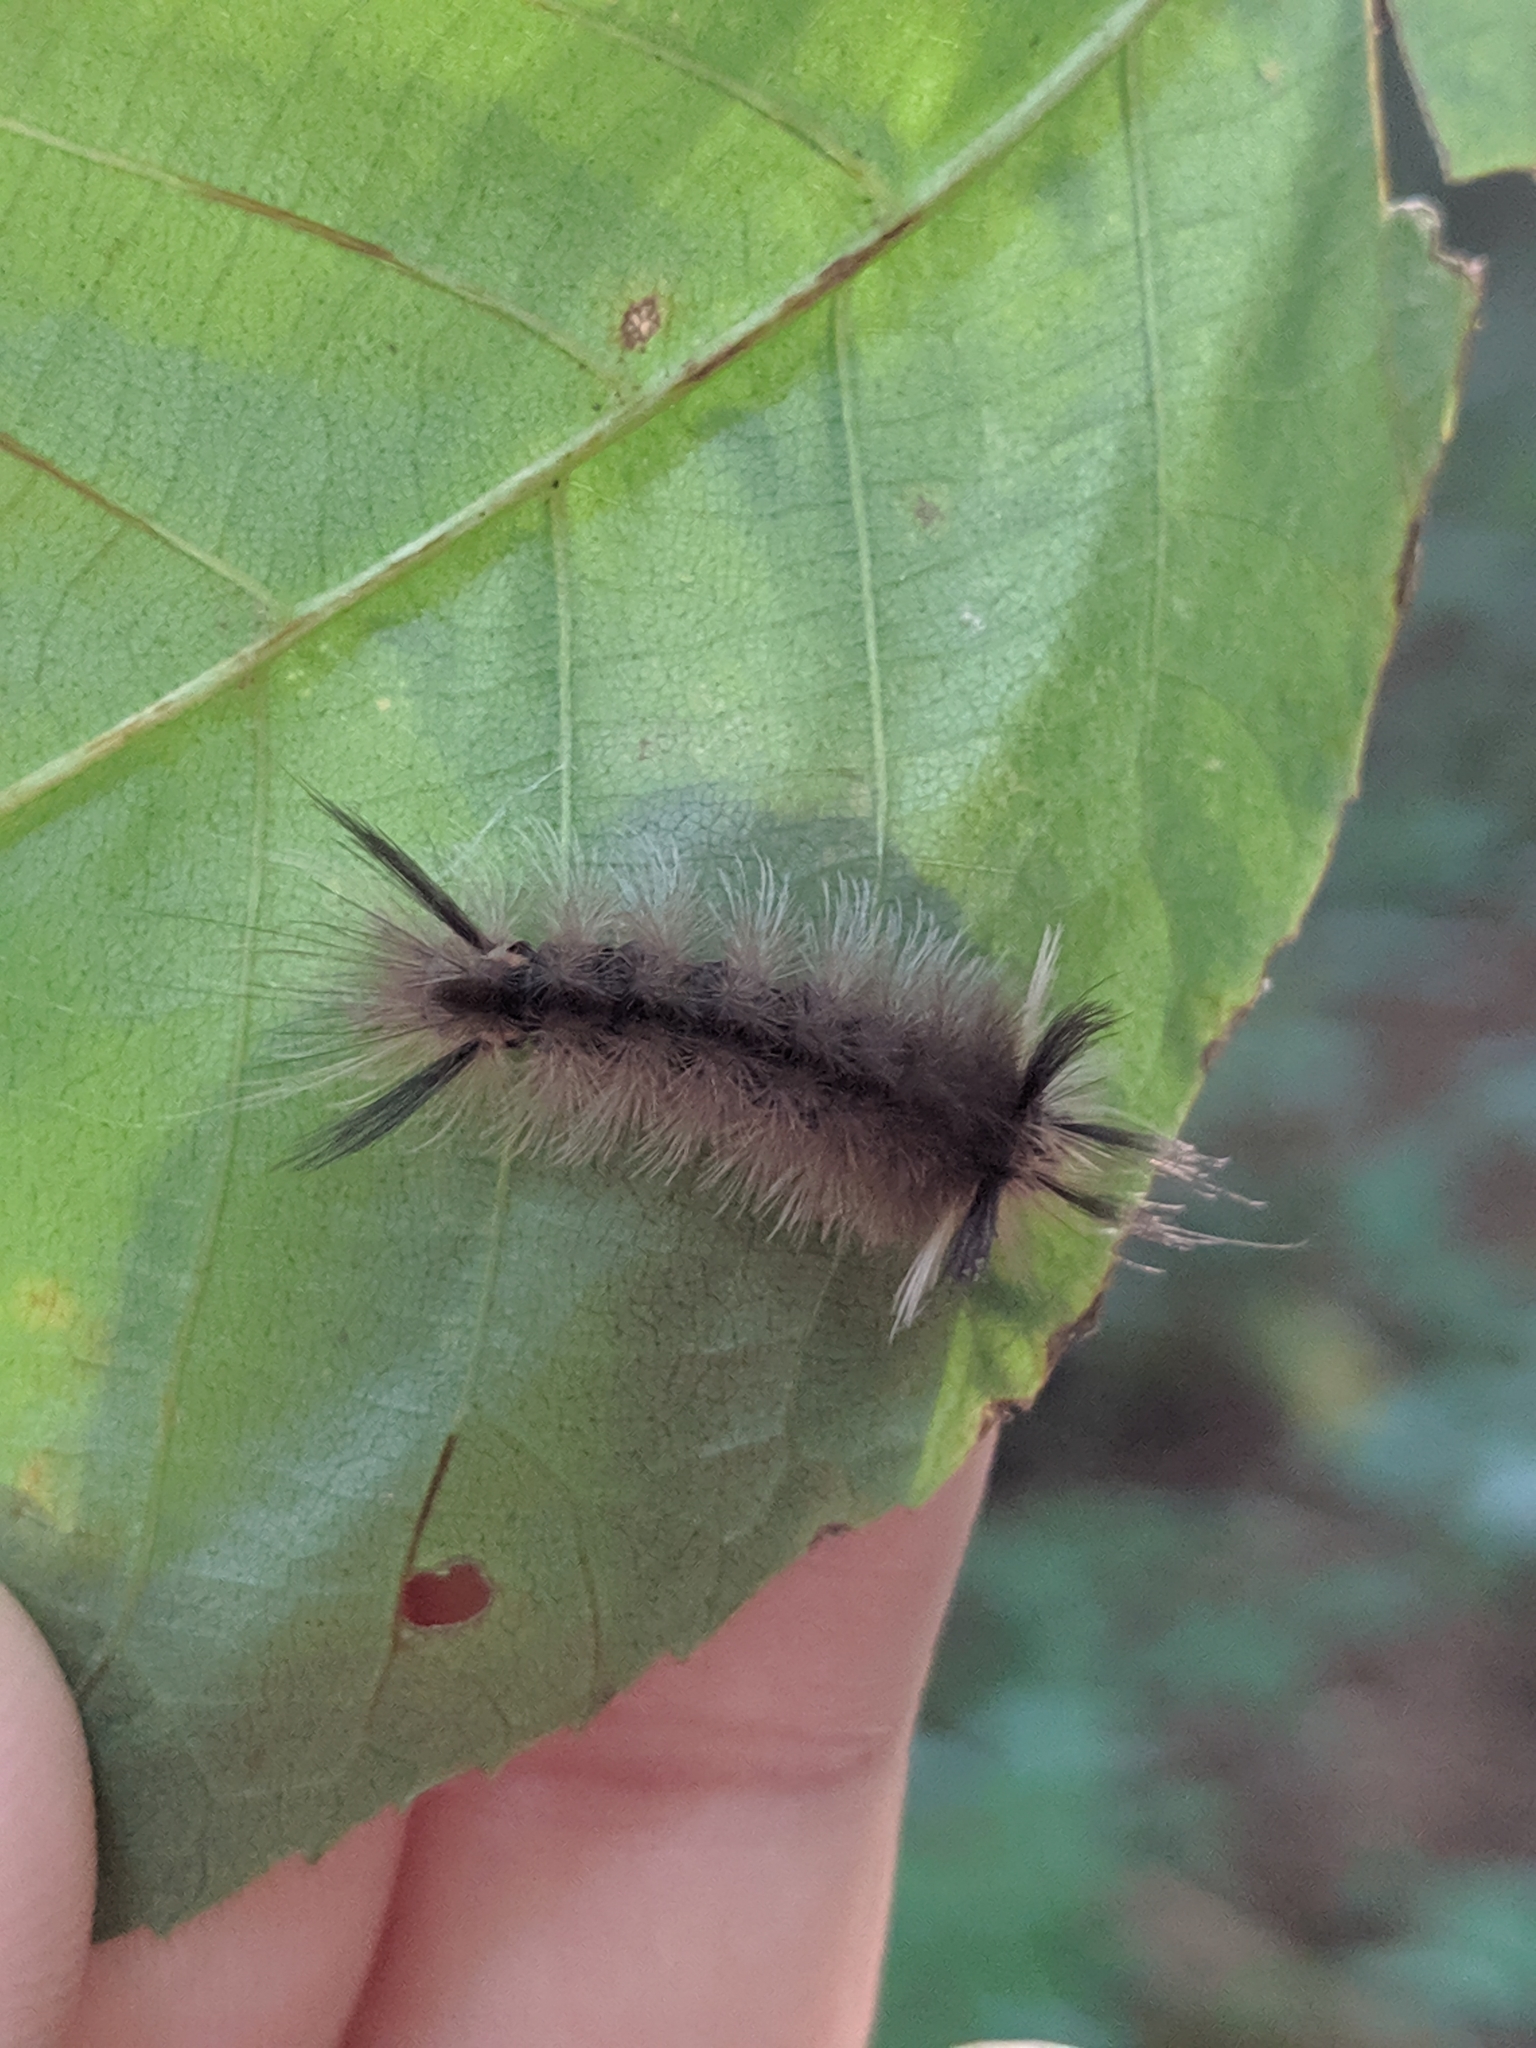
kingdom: Animalia
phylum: Arthropoda
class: Insecta
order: Lepidoptera
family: Erebidae
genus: Halysidota
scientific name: Halysidota tessellaris
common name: Banded tussock moth
